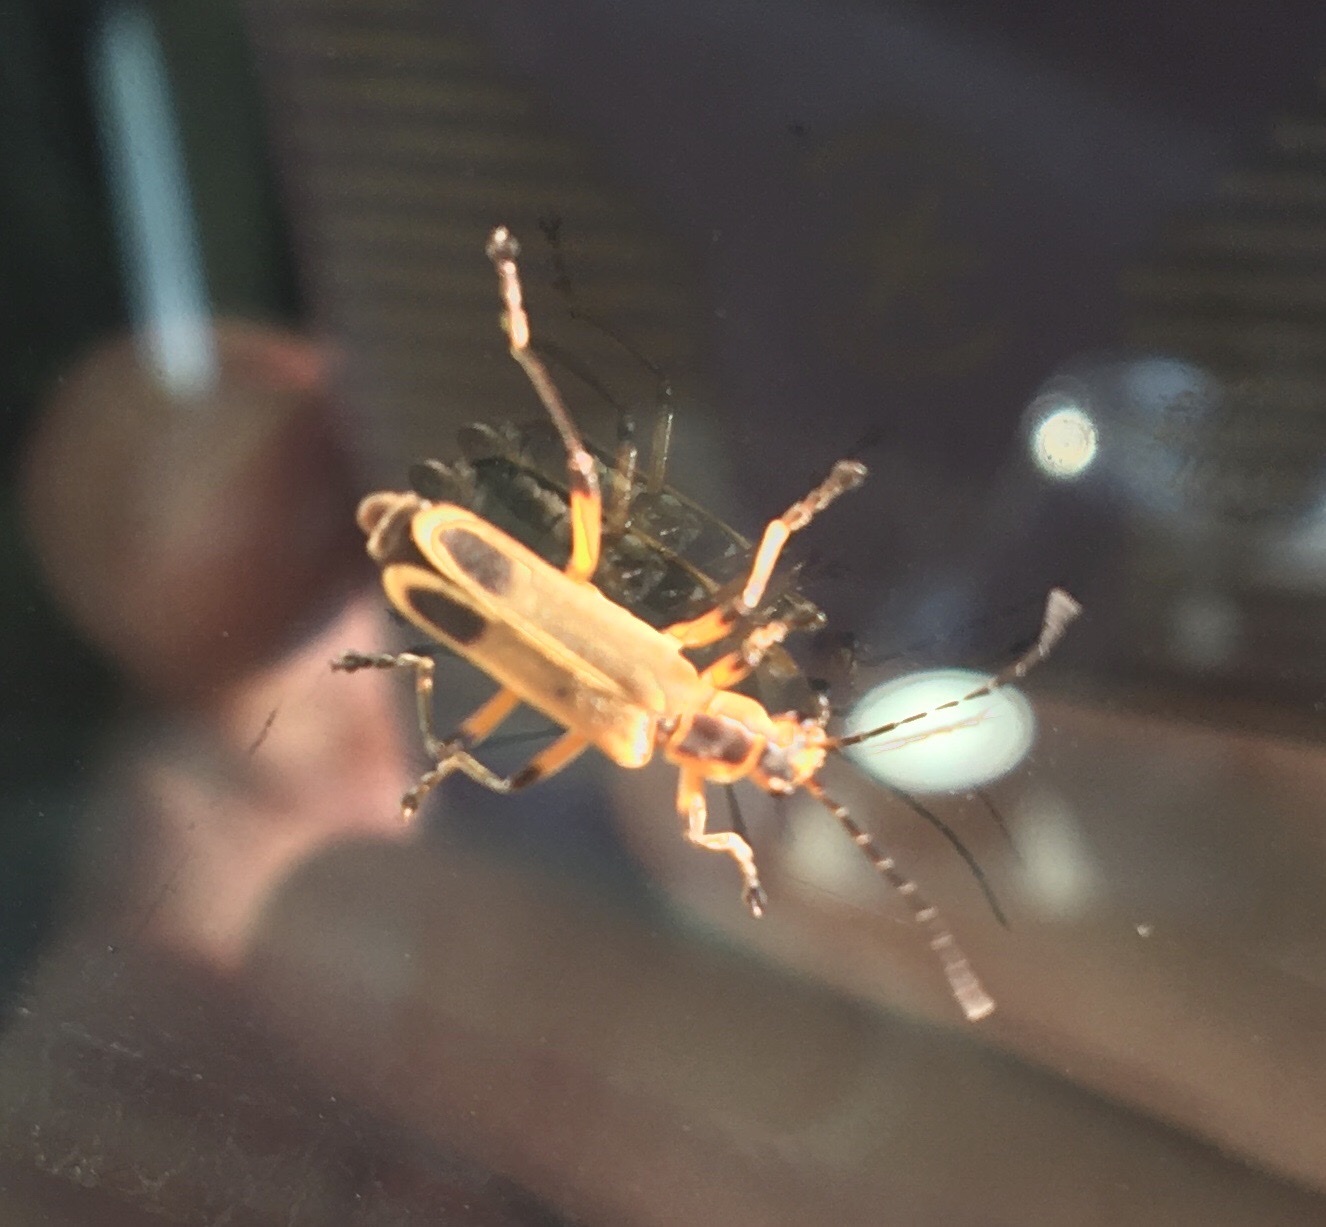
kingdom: Animalia
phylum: Arthropoda
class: Insecta
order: Coleoptera
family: Cantharidae
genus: Chauliognathus
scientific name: Chauliognathus marginatus
